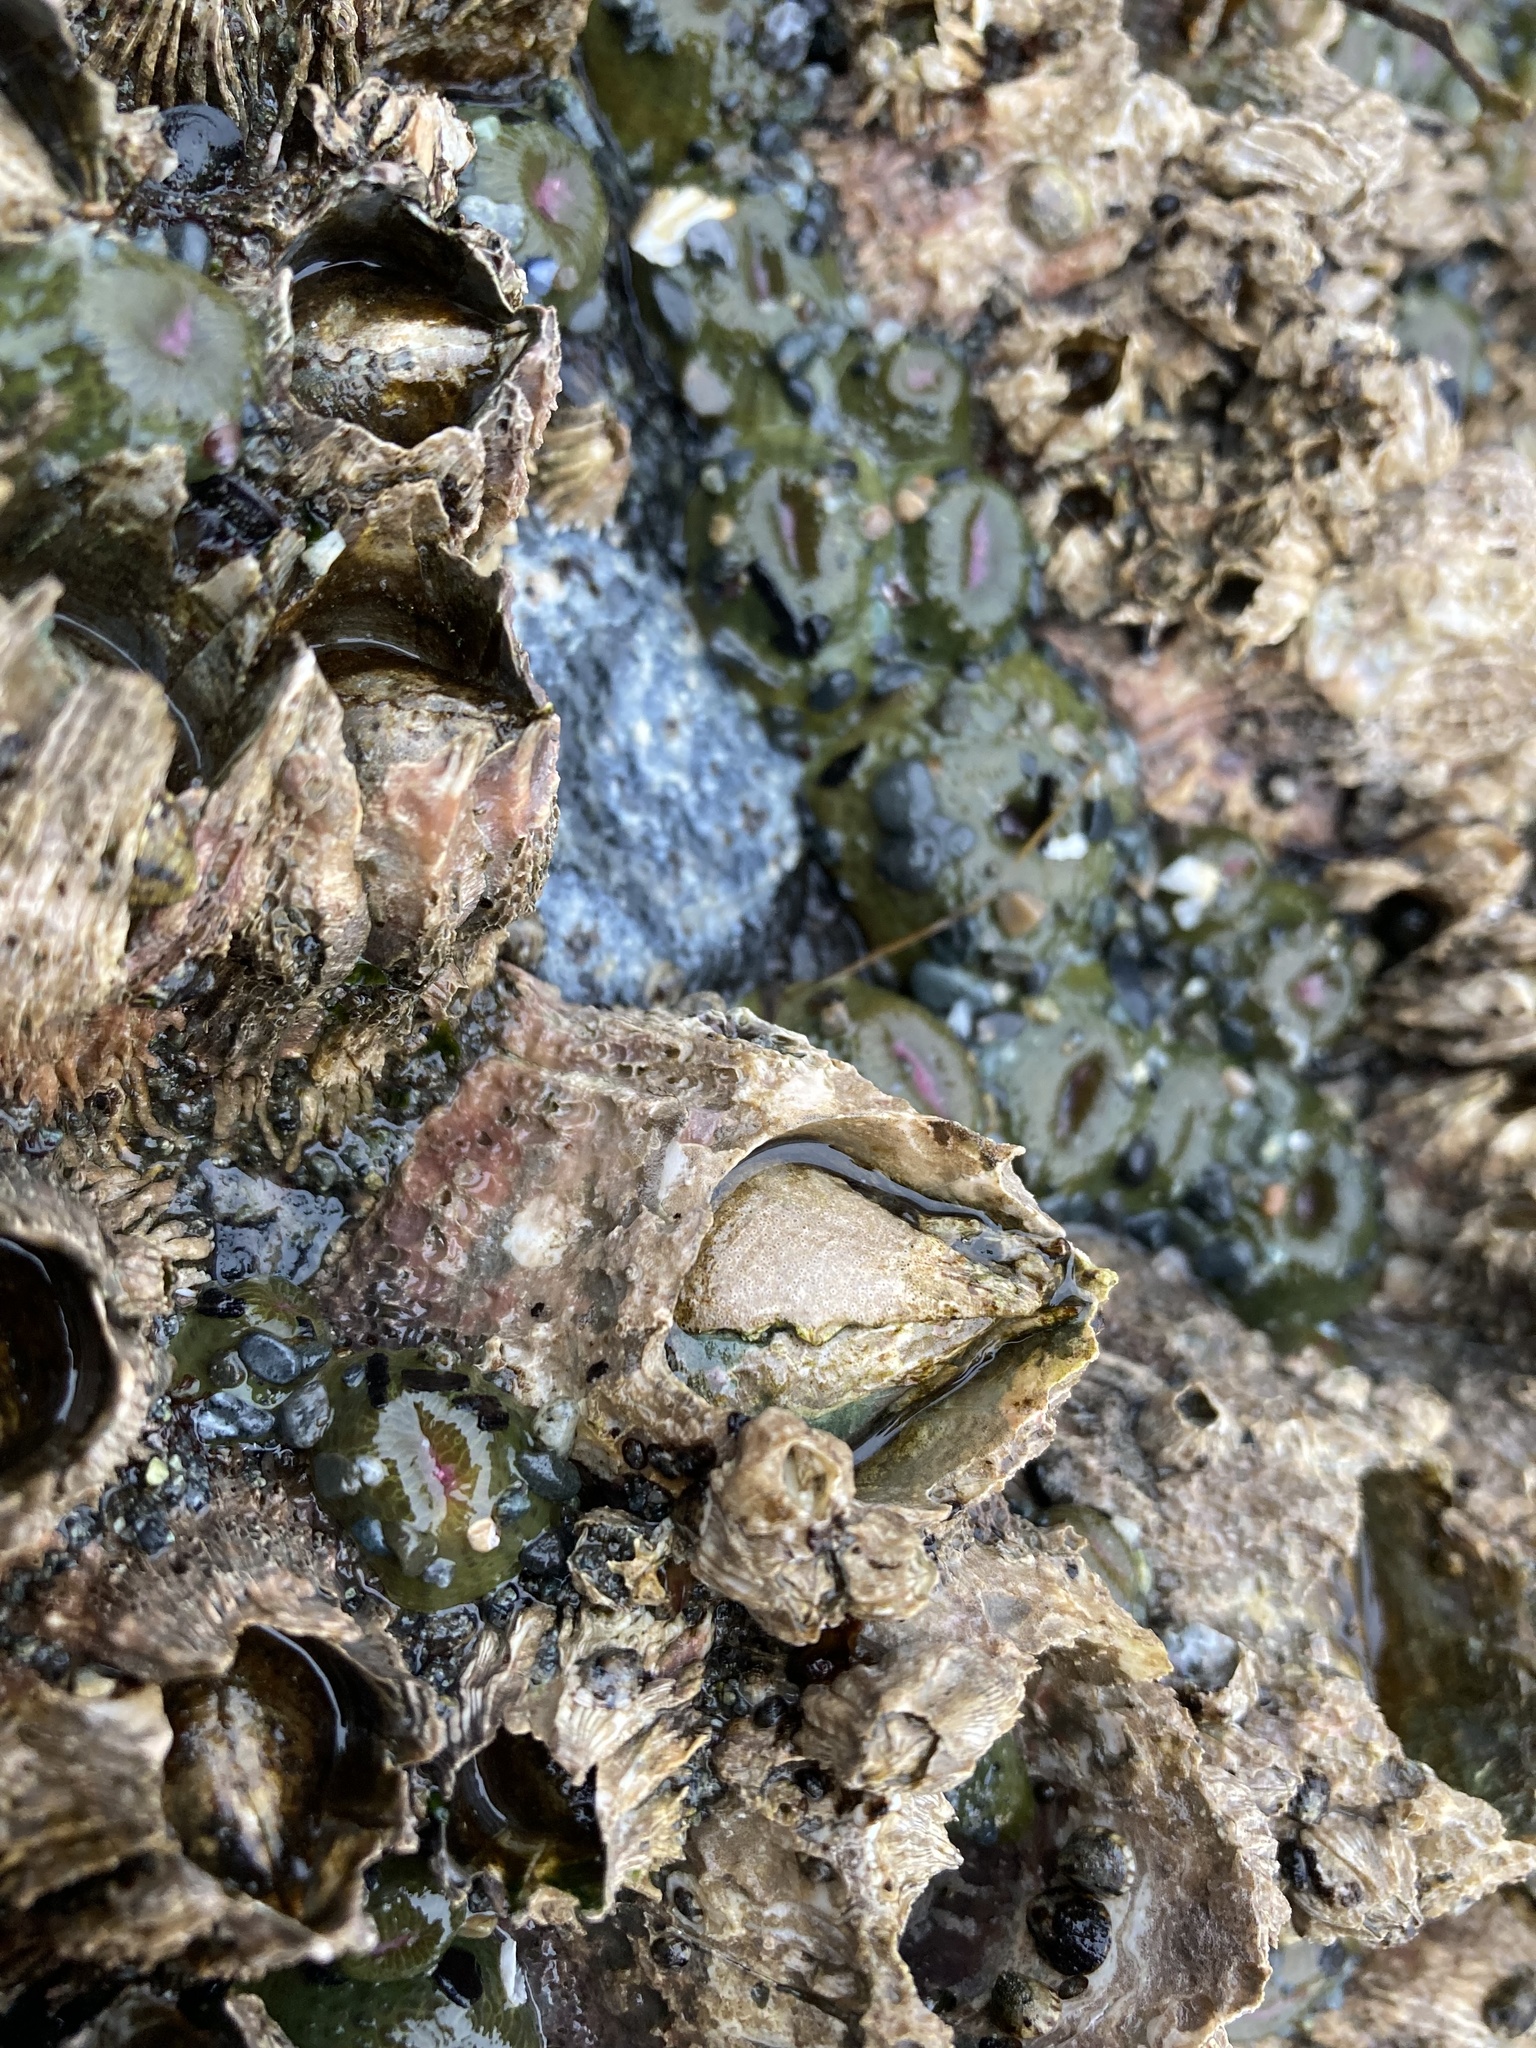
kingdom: Animalia
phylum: Arthropoda
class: Maxillopoda
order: Sessilia
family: Archaeobalanidae
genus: Semibalanus
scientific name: Semibalanus cariosus
